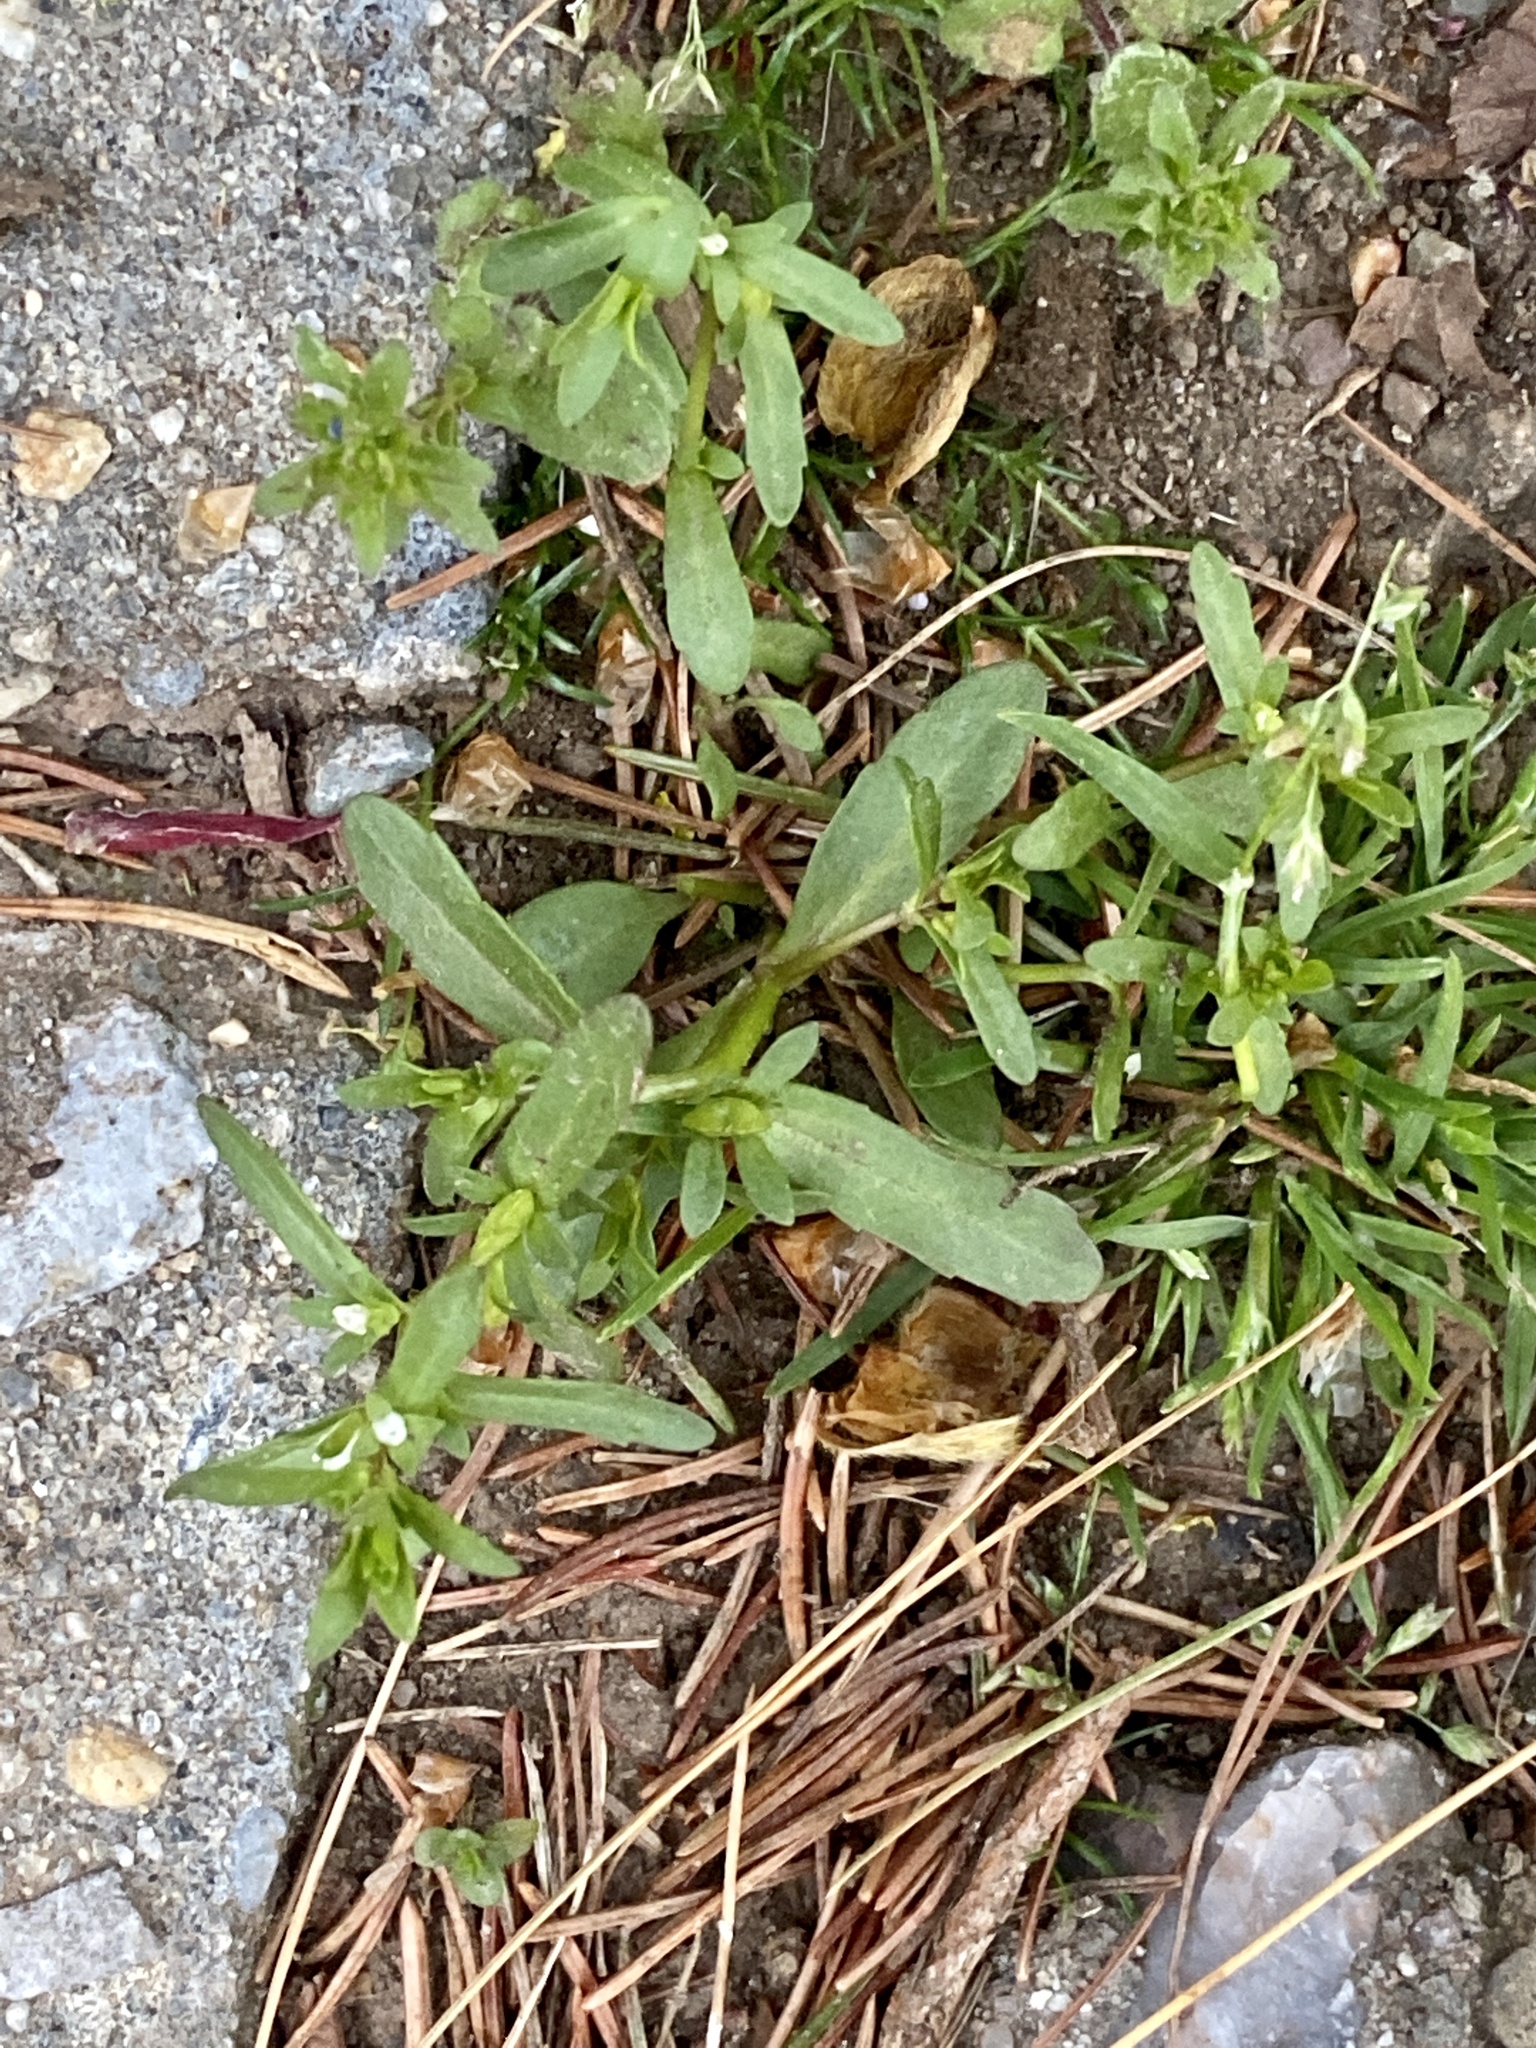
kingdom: Plantae
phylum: Tracheophyta
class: Magnoliopsida
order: Lamiales
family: Plantaginaceae
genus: Veronica
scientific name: Veronica peregrina
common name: Neckweed
